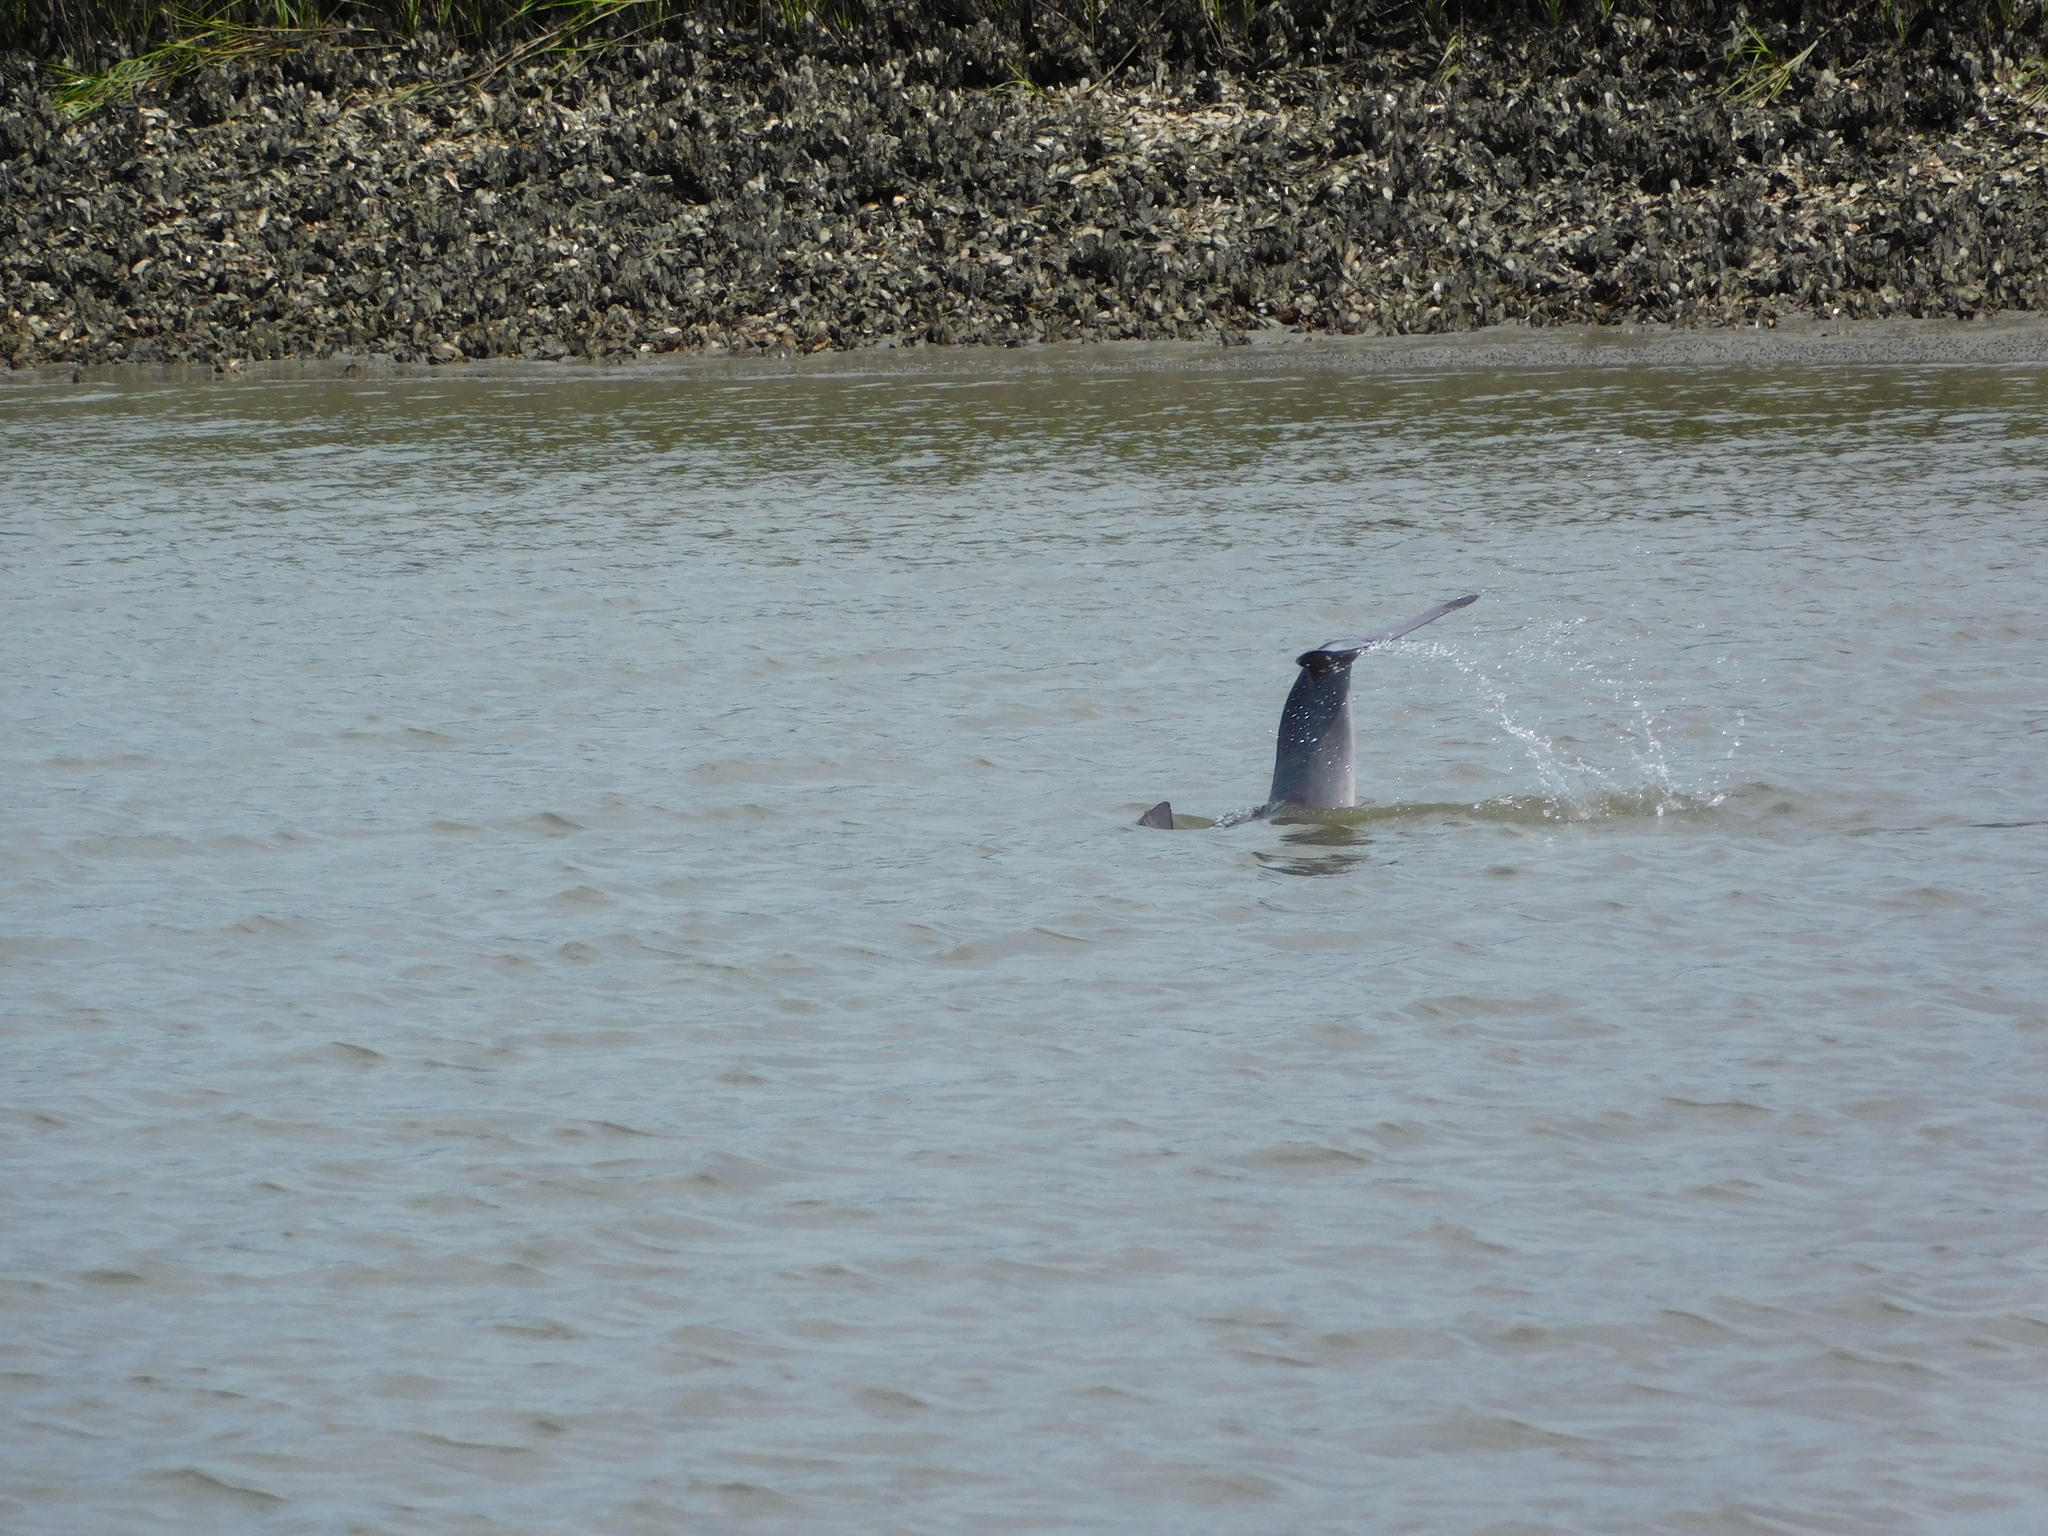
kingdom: Animalia
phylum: Chordata
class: Mammalia
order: Cetacea
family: Delphinidae
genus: Tursiops
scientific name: Tursiops truncatus
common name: Bottlenose dolphin
